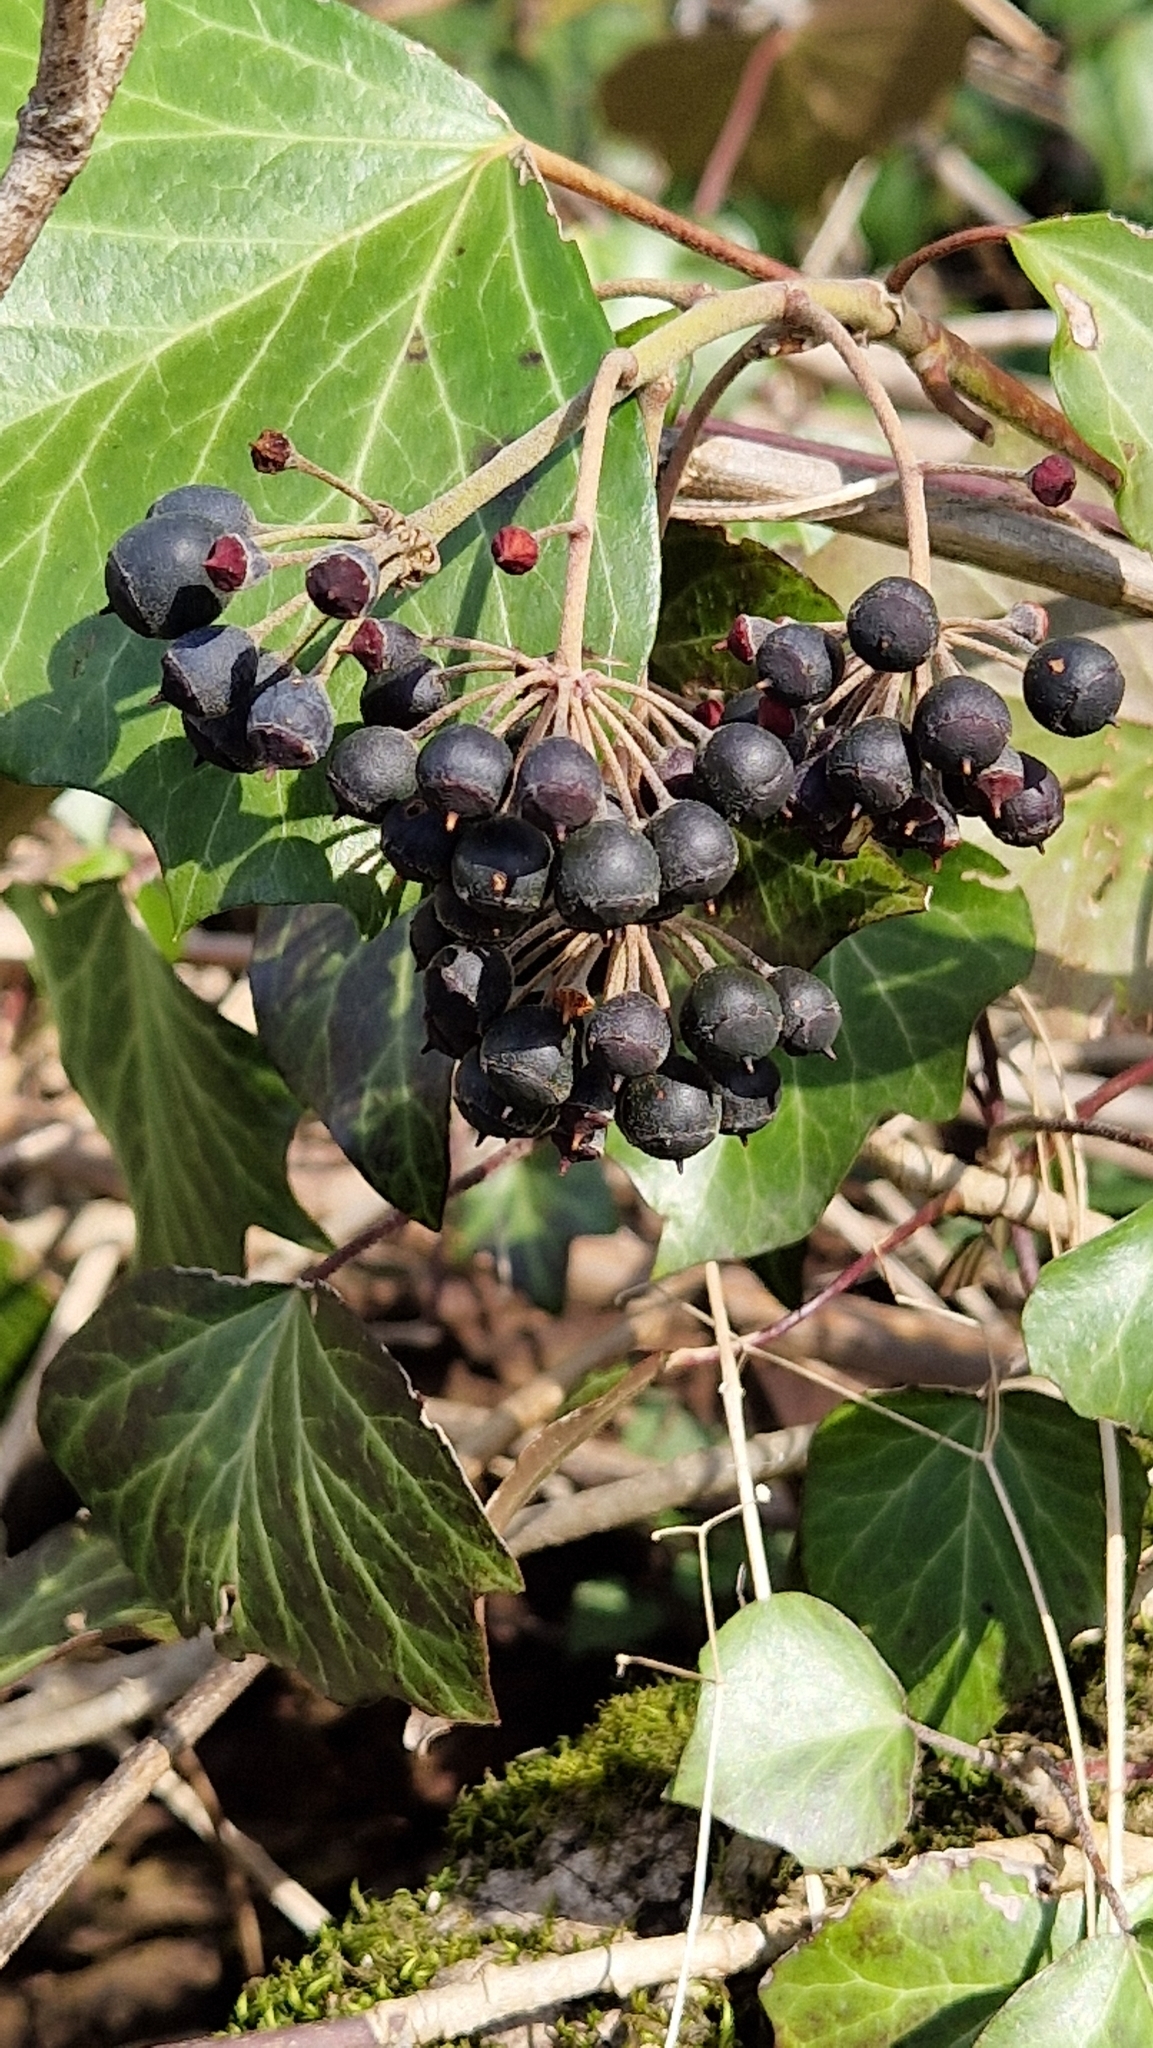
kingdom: Plantae
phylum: Tracheophyta
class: Magnoliopsida
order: Apiales
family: Araliaceae
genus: Hedera
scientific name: Hedera helix
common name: Ivy
